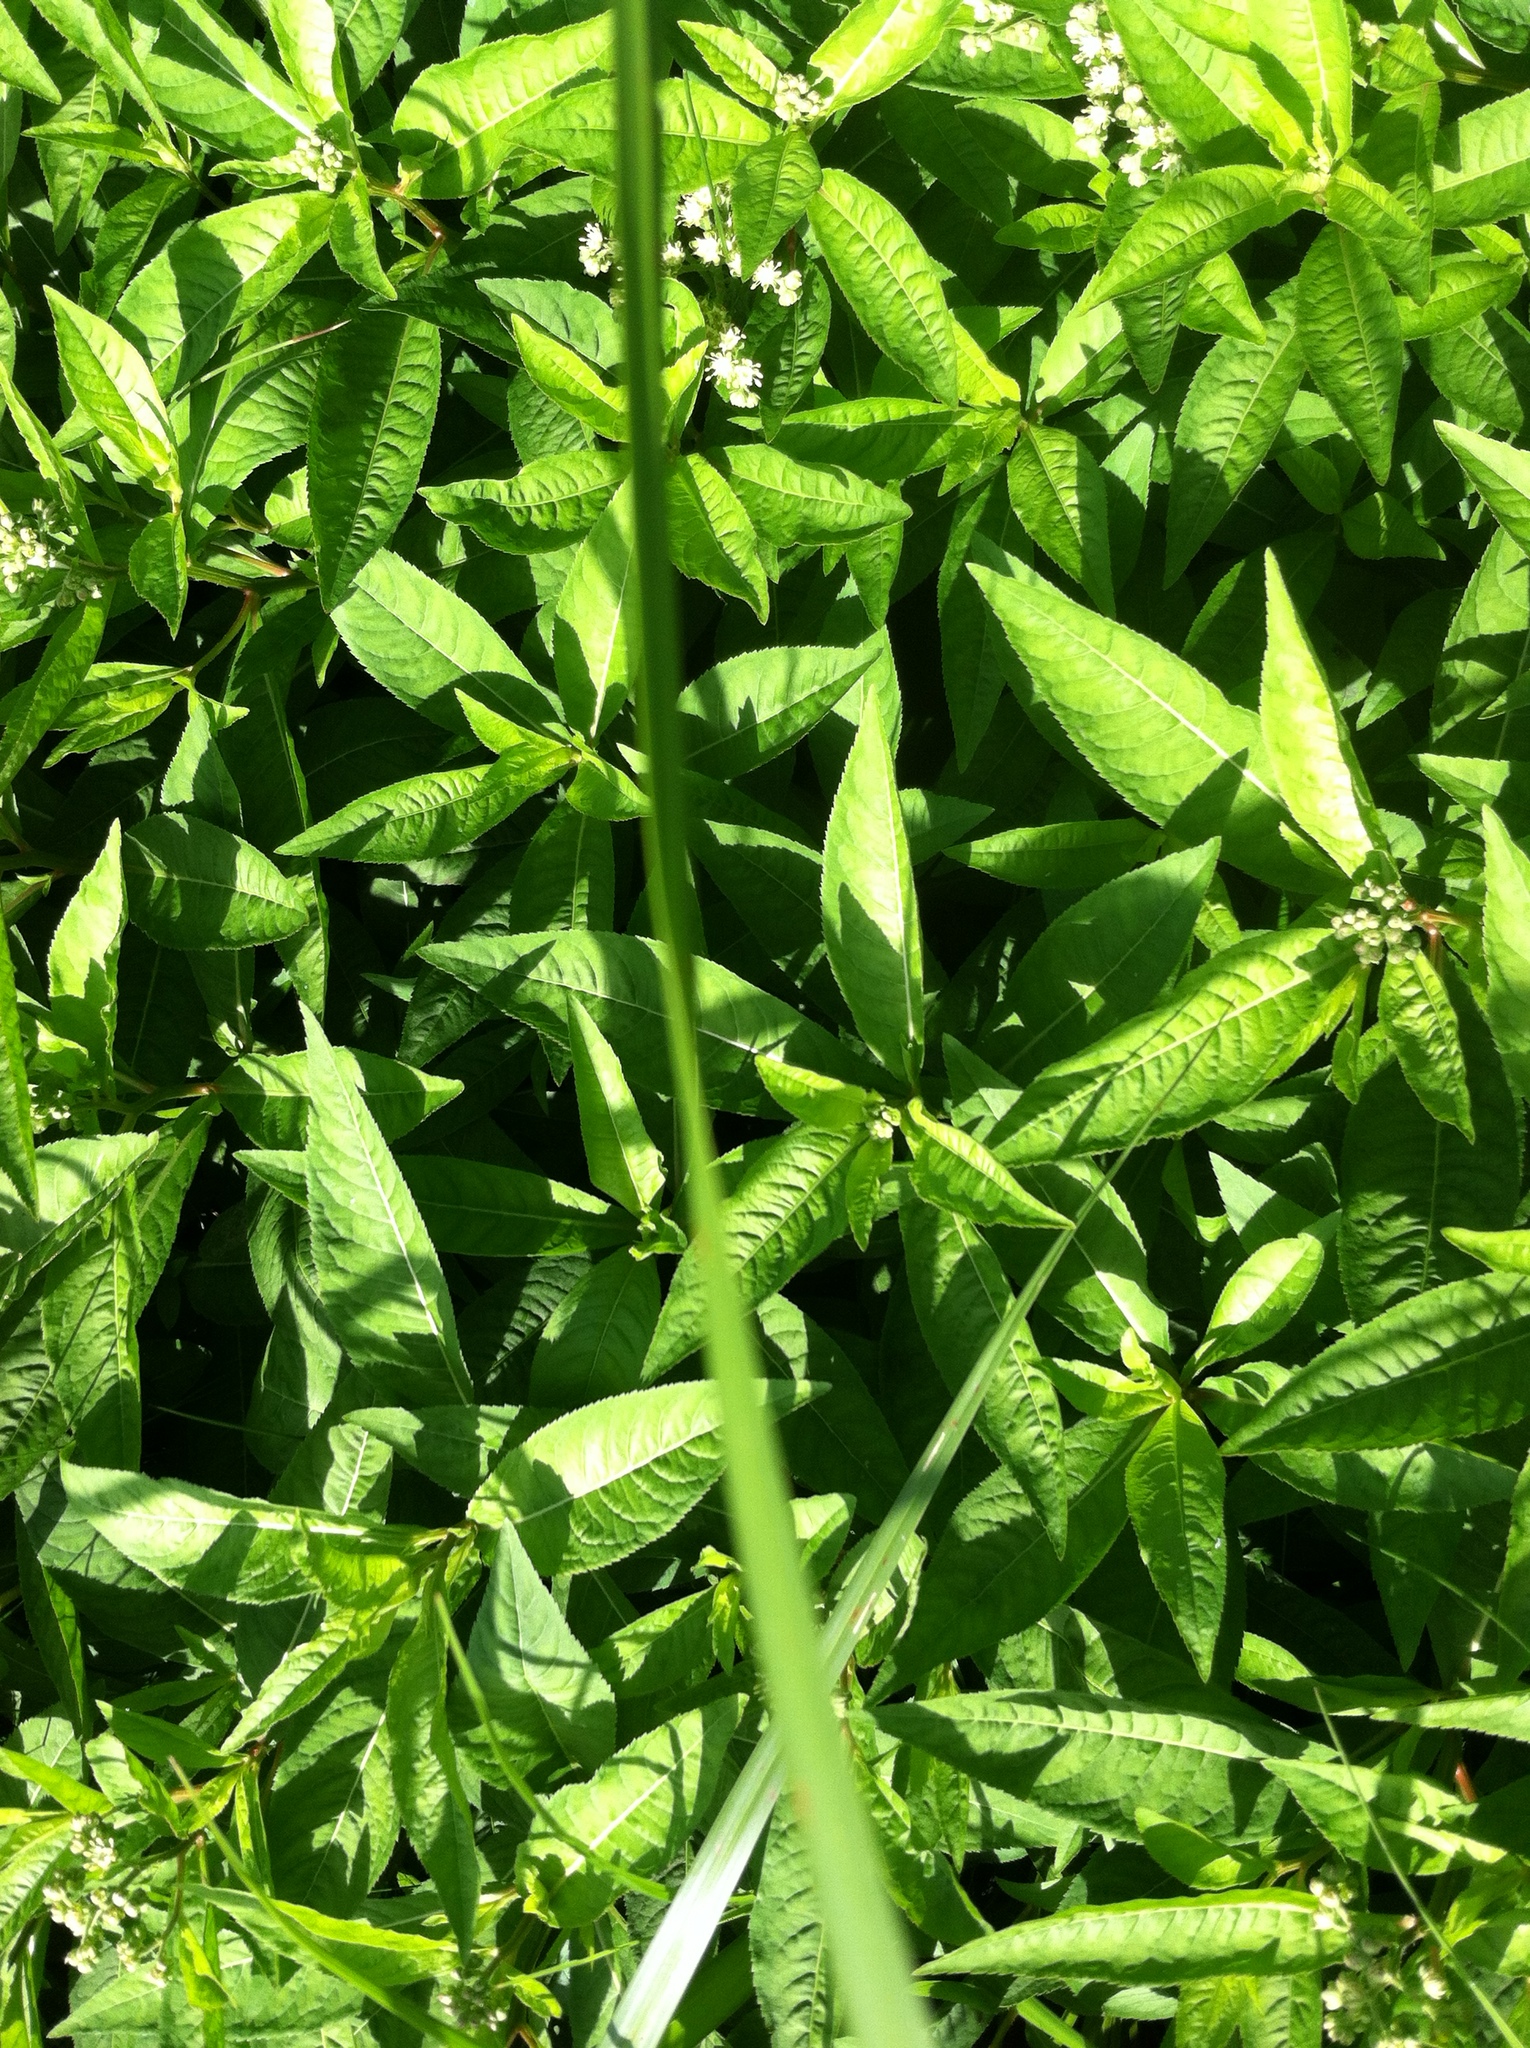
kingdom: Plantae
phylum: Tracheophyta
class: Magnoliopsida
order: Saxifragales
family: Penthoraceae
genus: Penthorum
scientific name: Penthorum sedoides
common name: Ditch stonecrop
